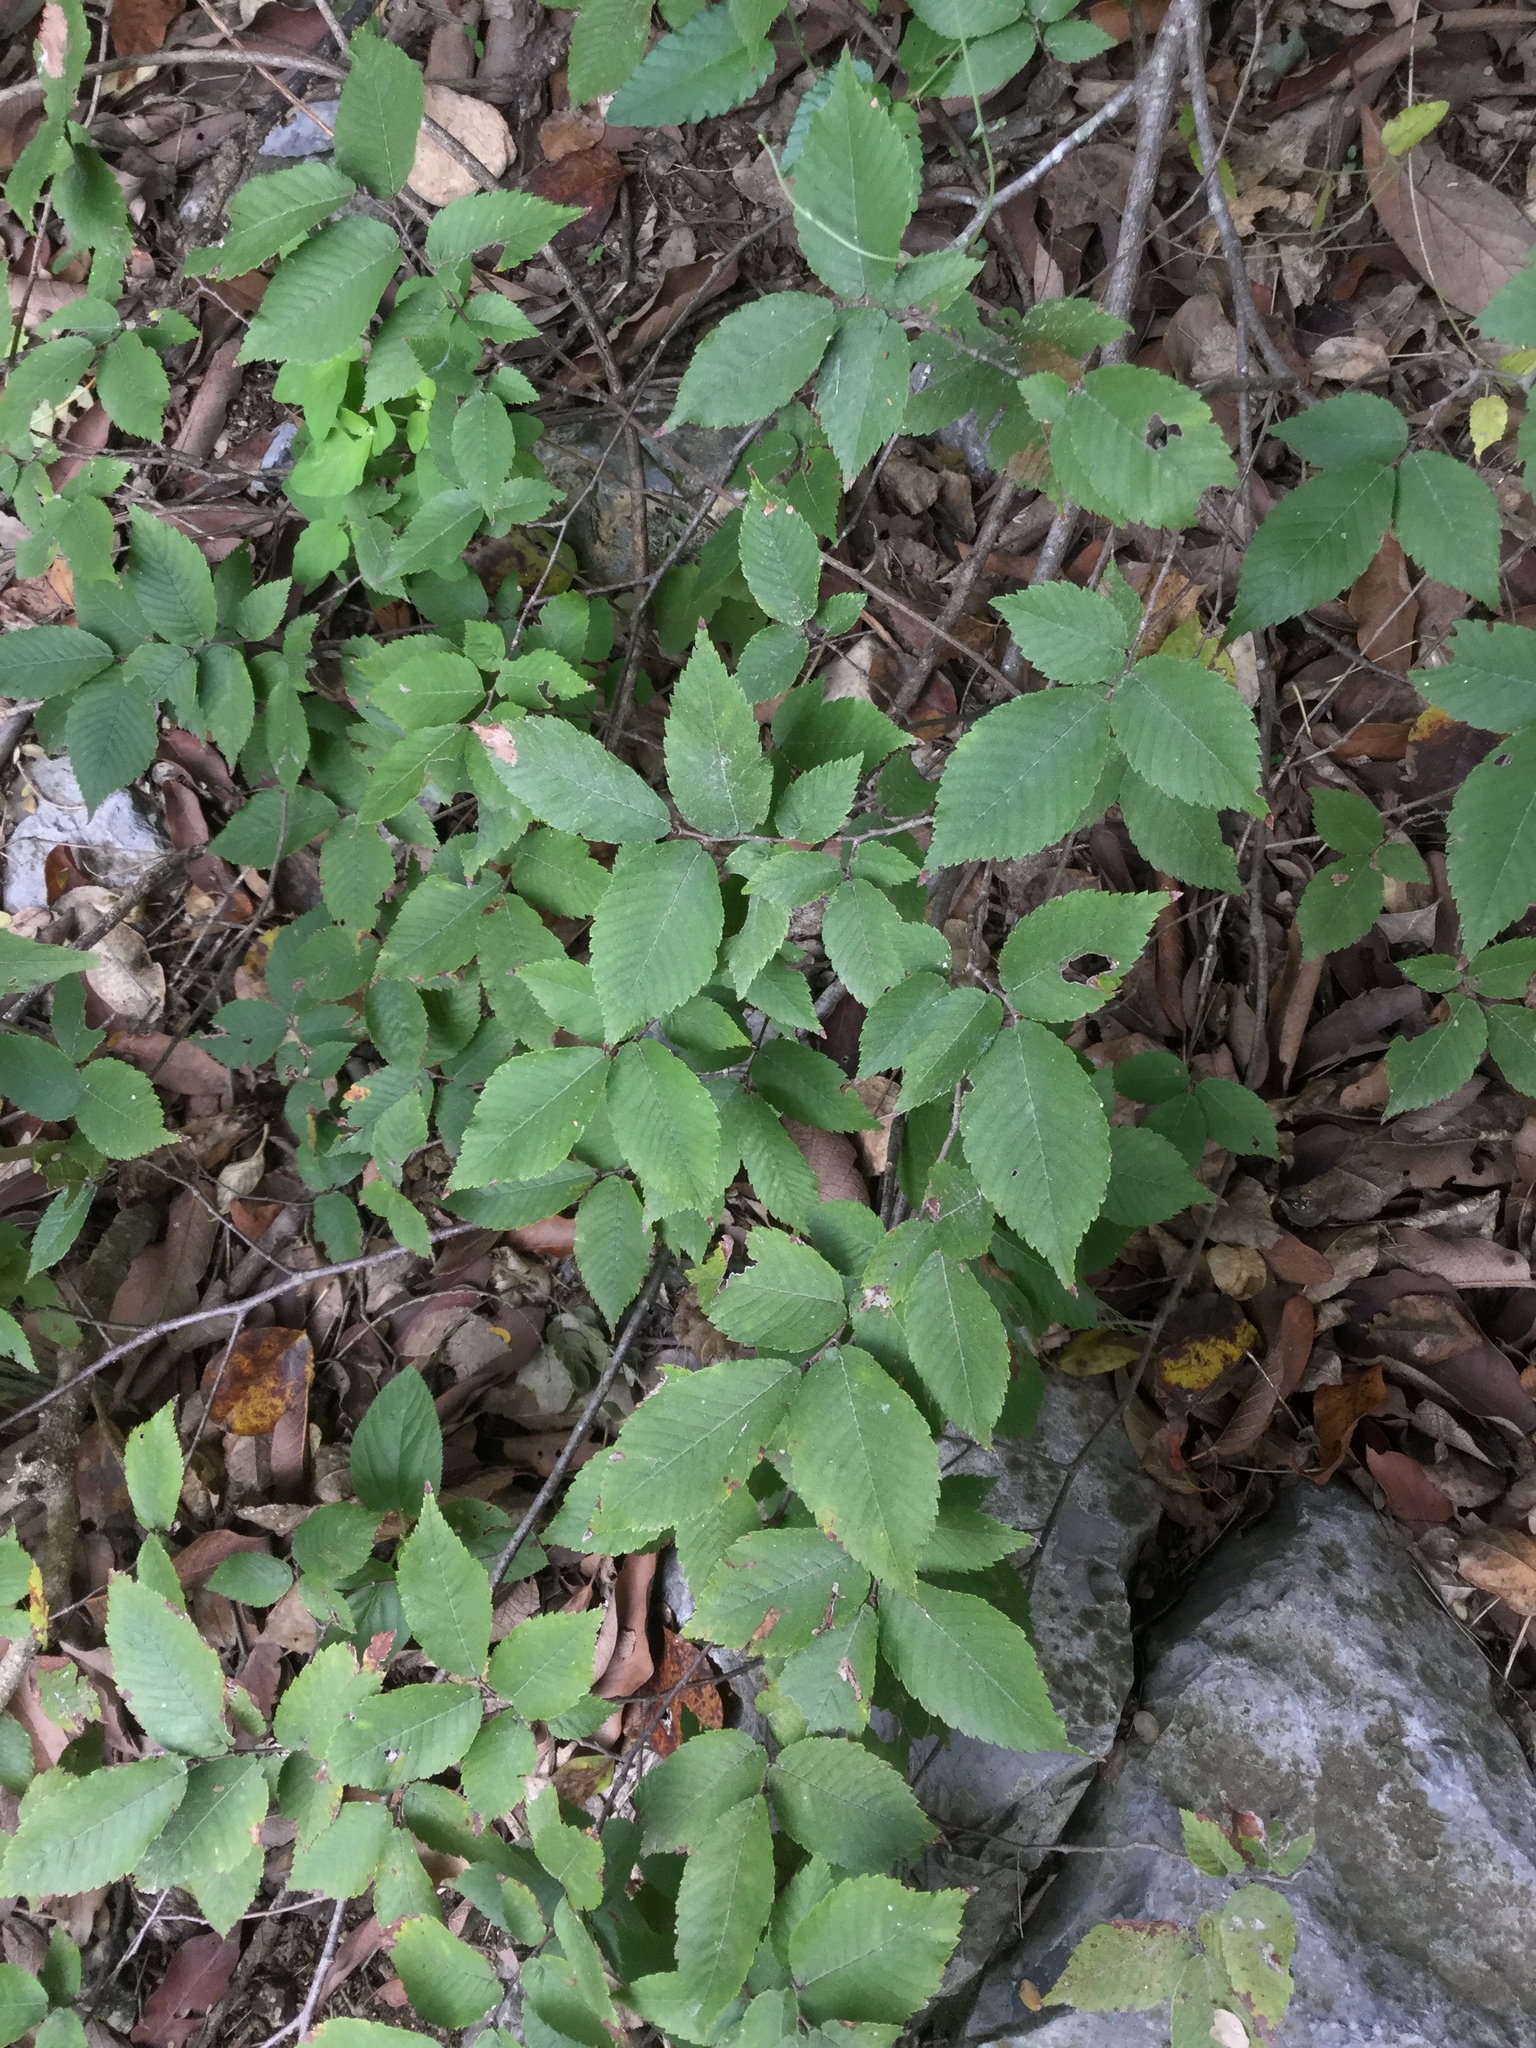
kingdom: Plantae
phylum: Tracheophyta
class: Magnoliopsida
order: Rosales
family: Ulmaceae
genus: Ulmus
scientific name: Ulmus crassifolia
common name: Basket elm
